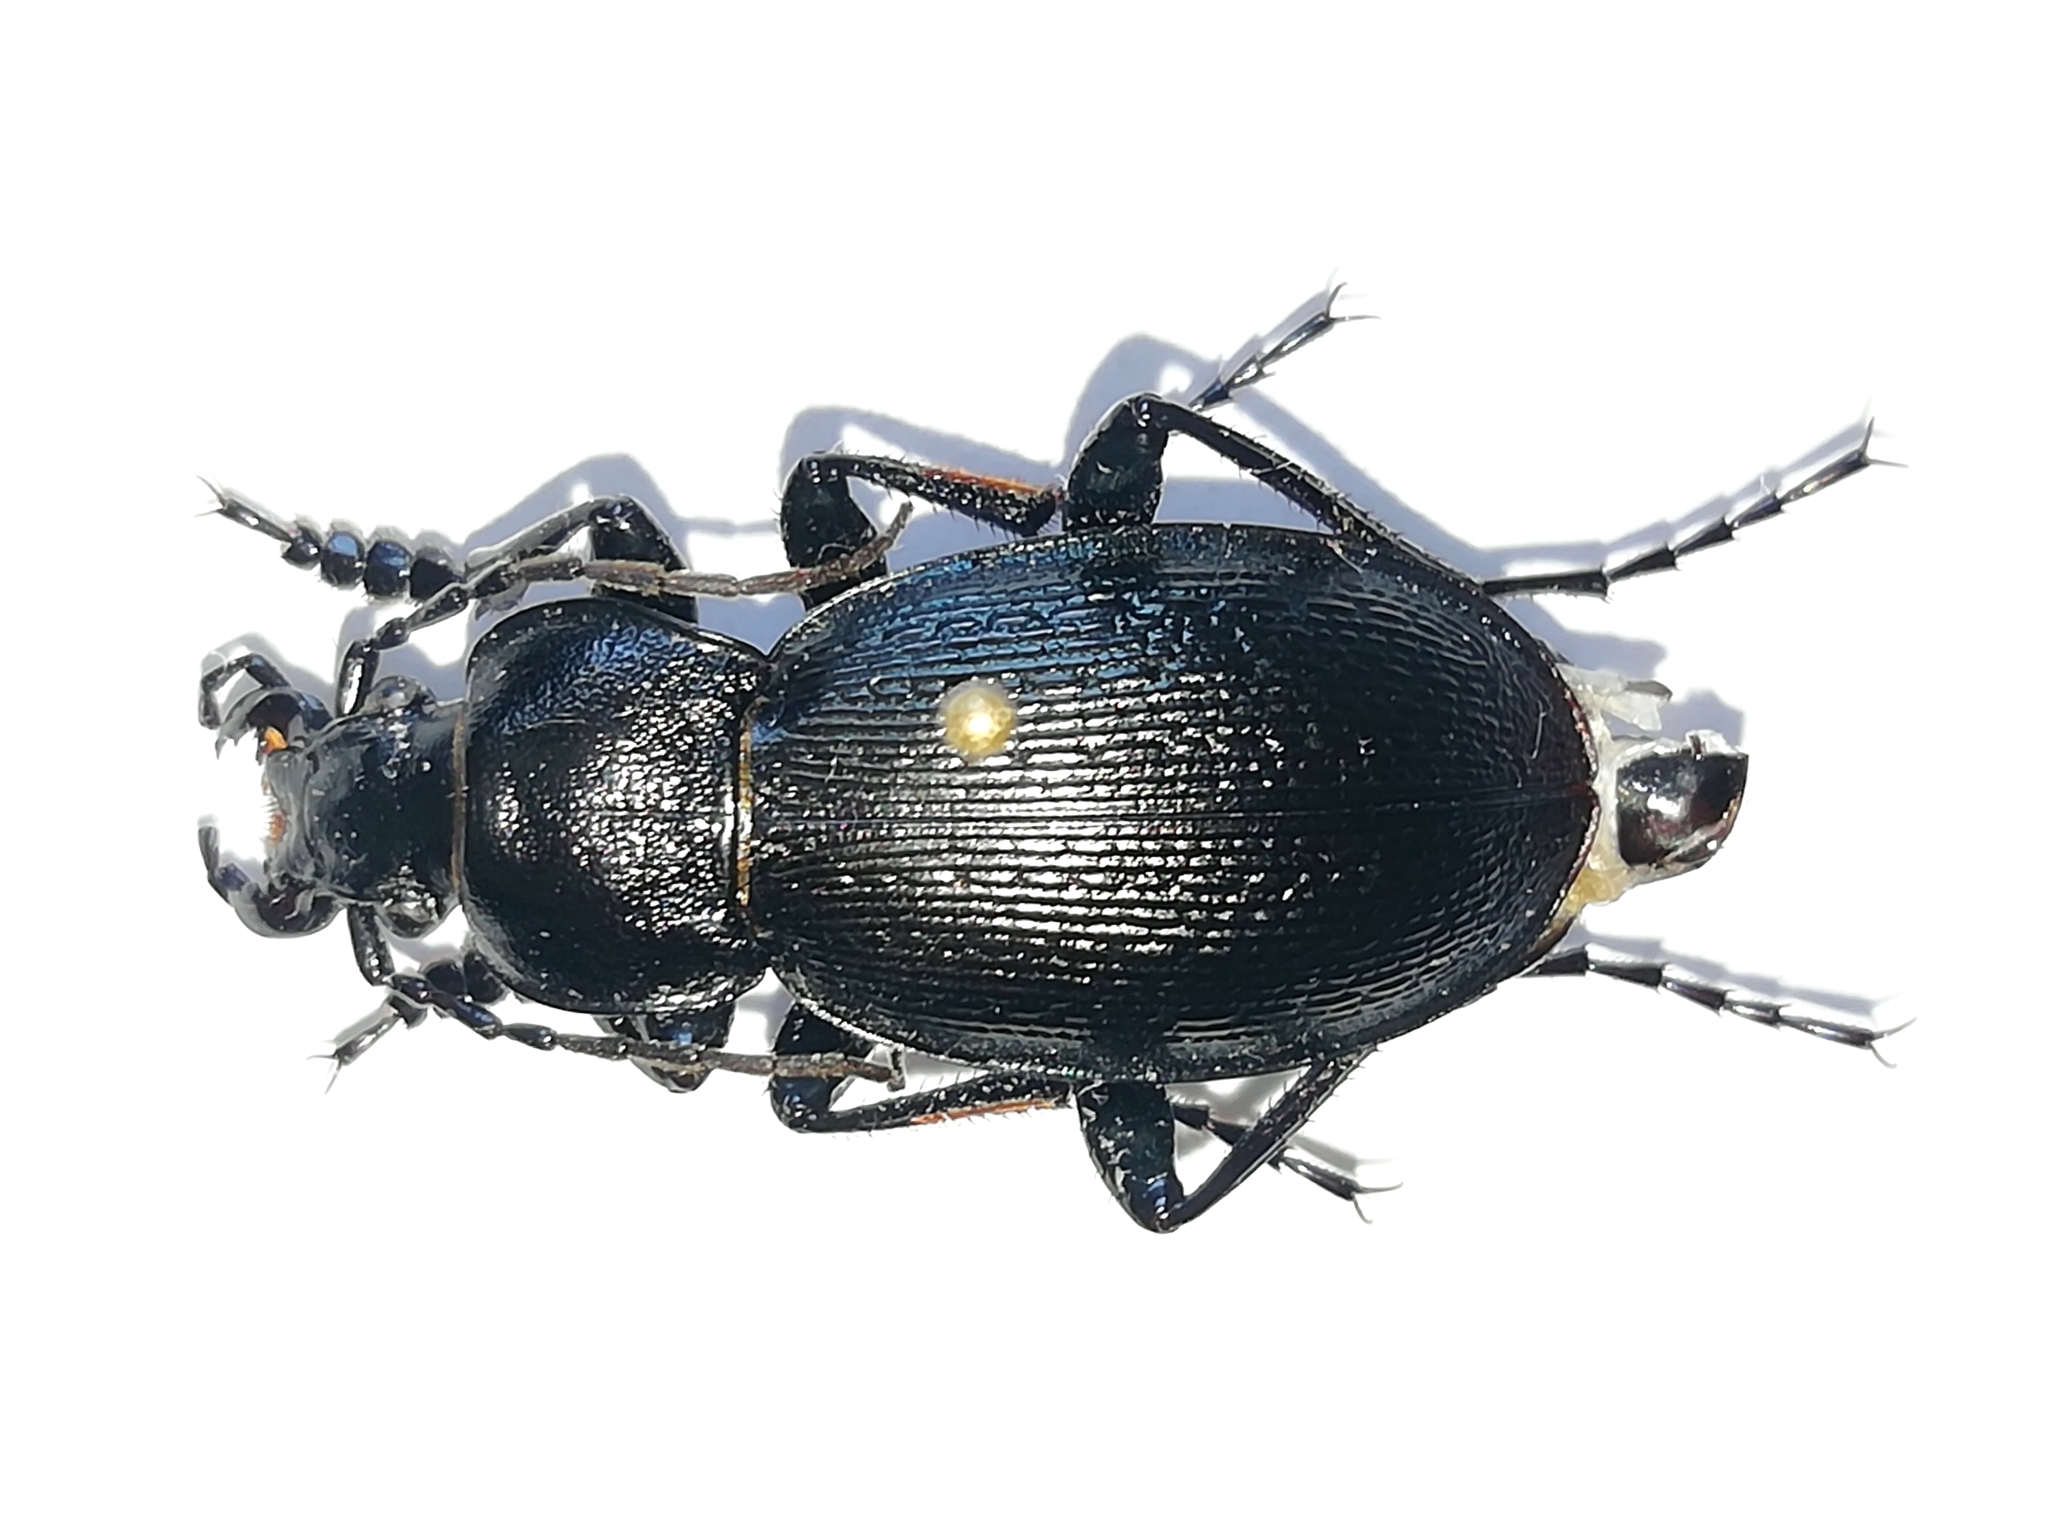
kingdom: Animalia
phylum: Arthropoda
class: Insecta
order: Coleoptera
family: Carabidae
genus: Carabus
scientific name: Carabus spasskianus
